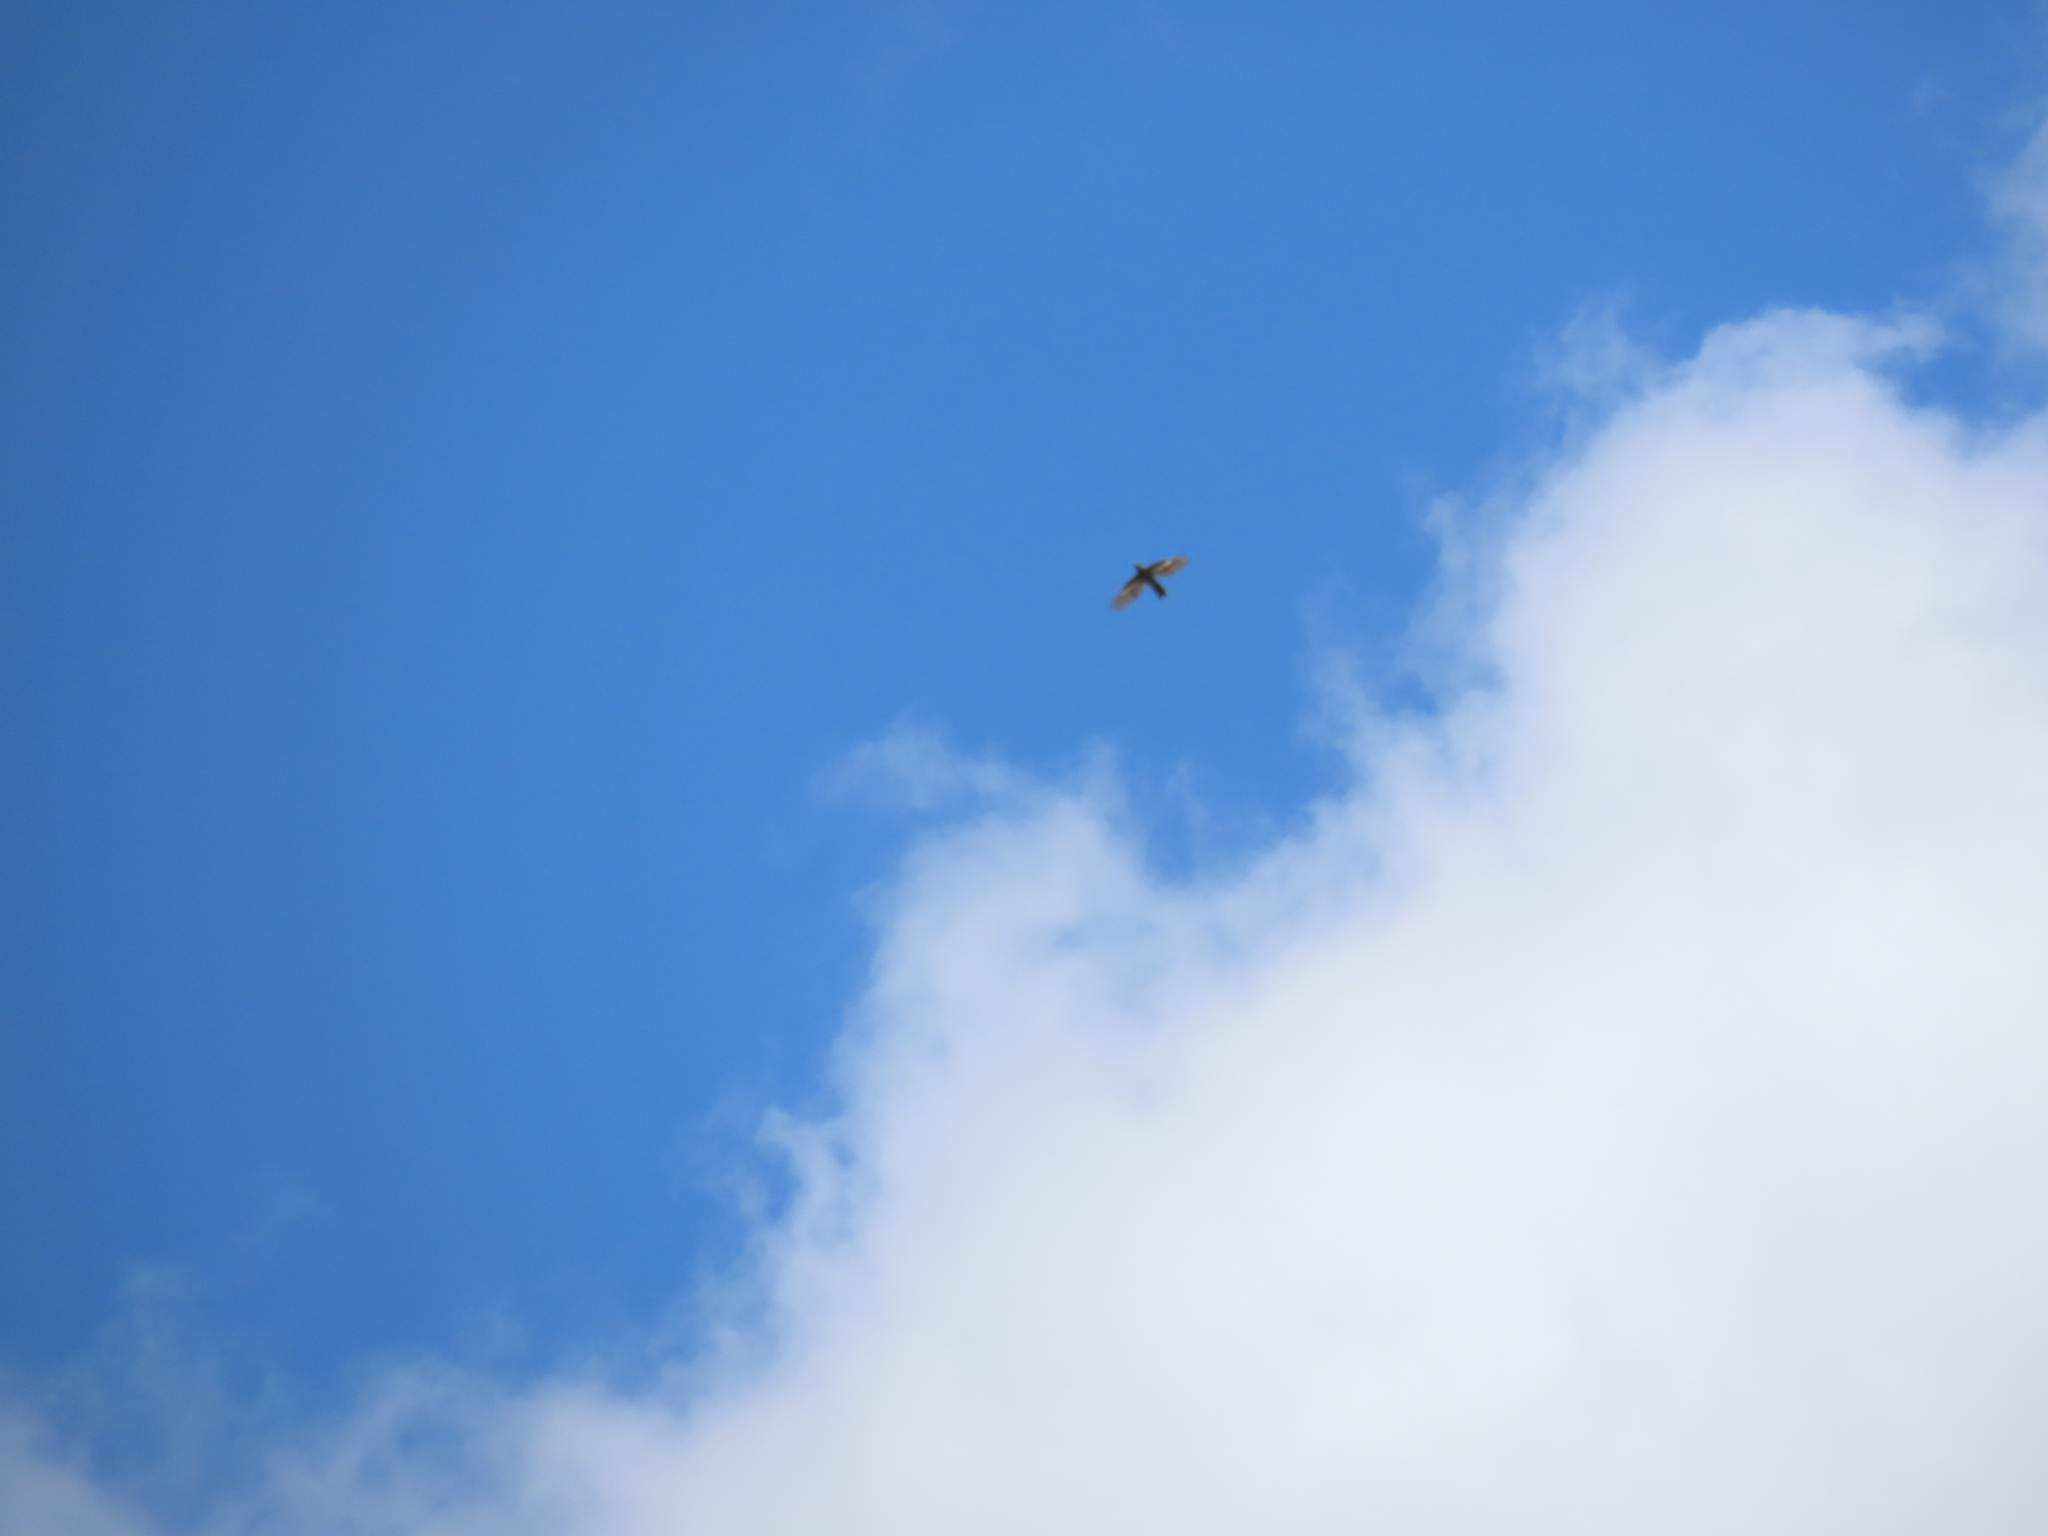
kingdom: Animalia
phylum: Chordata
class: Aves
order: Passeriformes
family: Turdidae
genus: Myadestes
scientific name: Myadestes townsendi
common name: Townsend's solitaire
